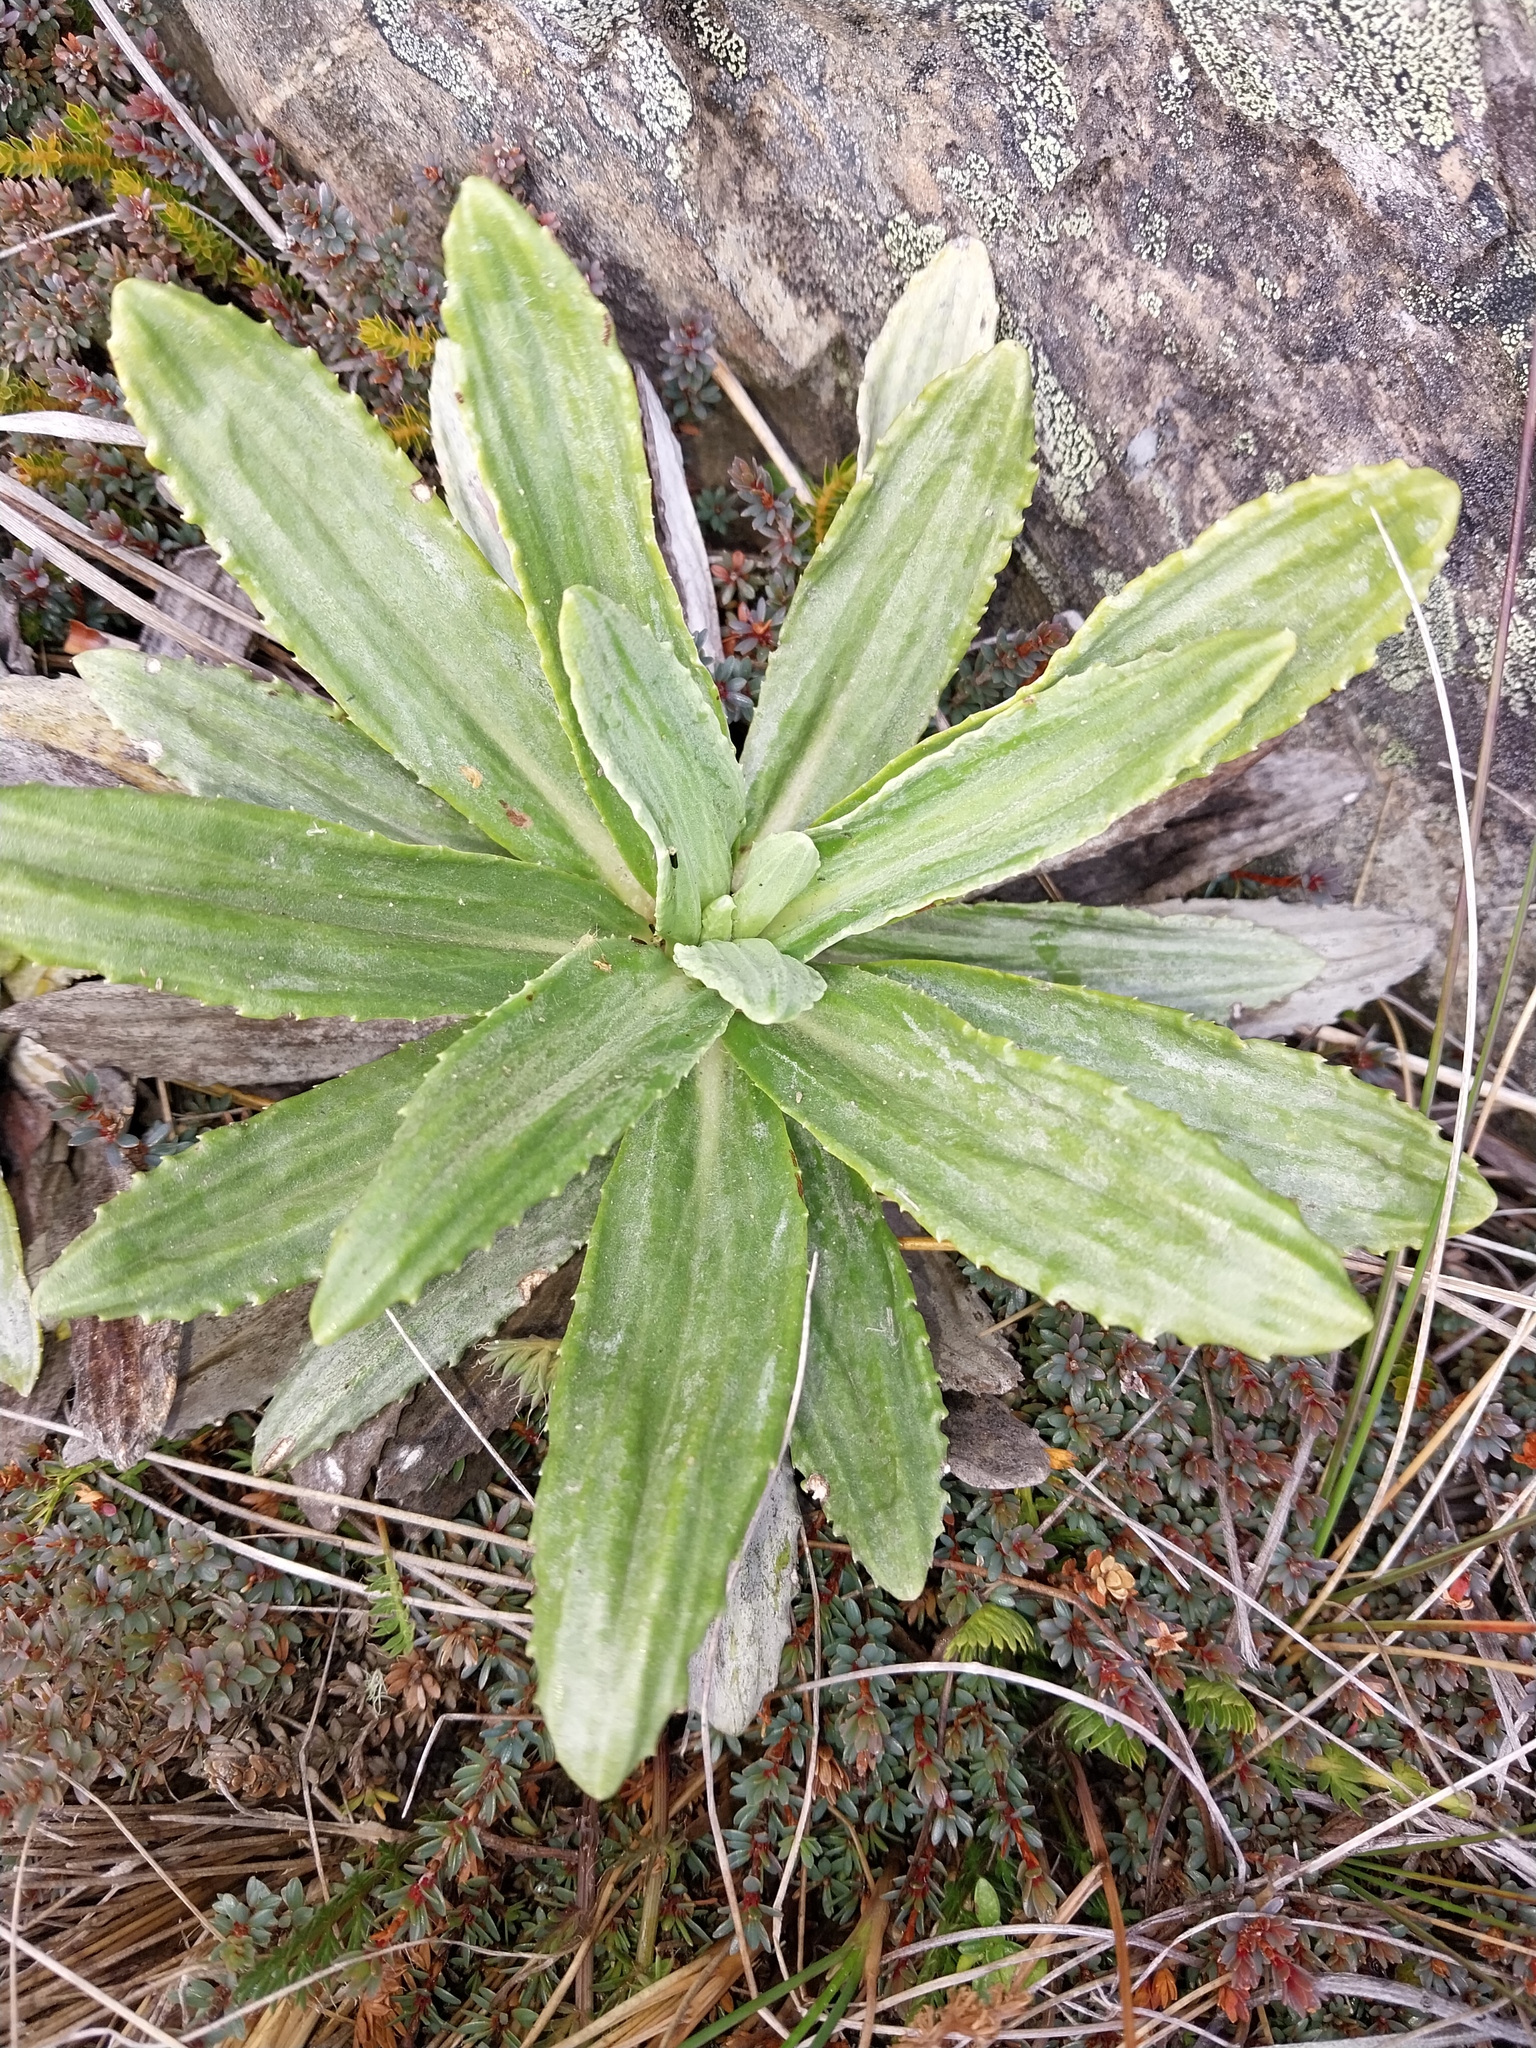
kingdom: Plantae
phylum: Tracheophyta
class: Magnoliopsida
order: Asterales
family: Asteraceae
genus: Celmisia
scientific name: Celmisia densiflora
